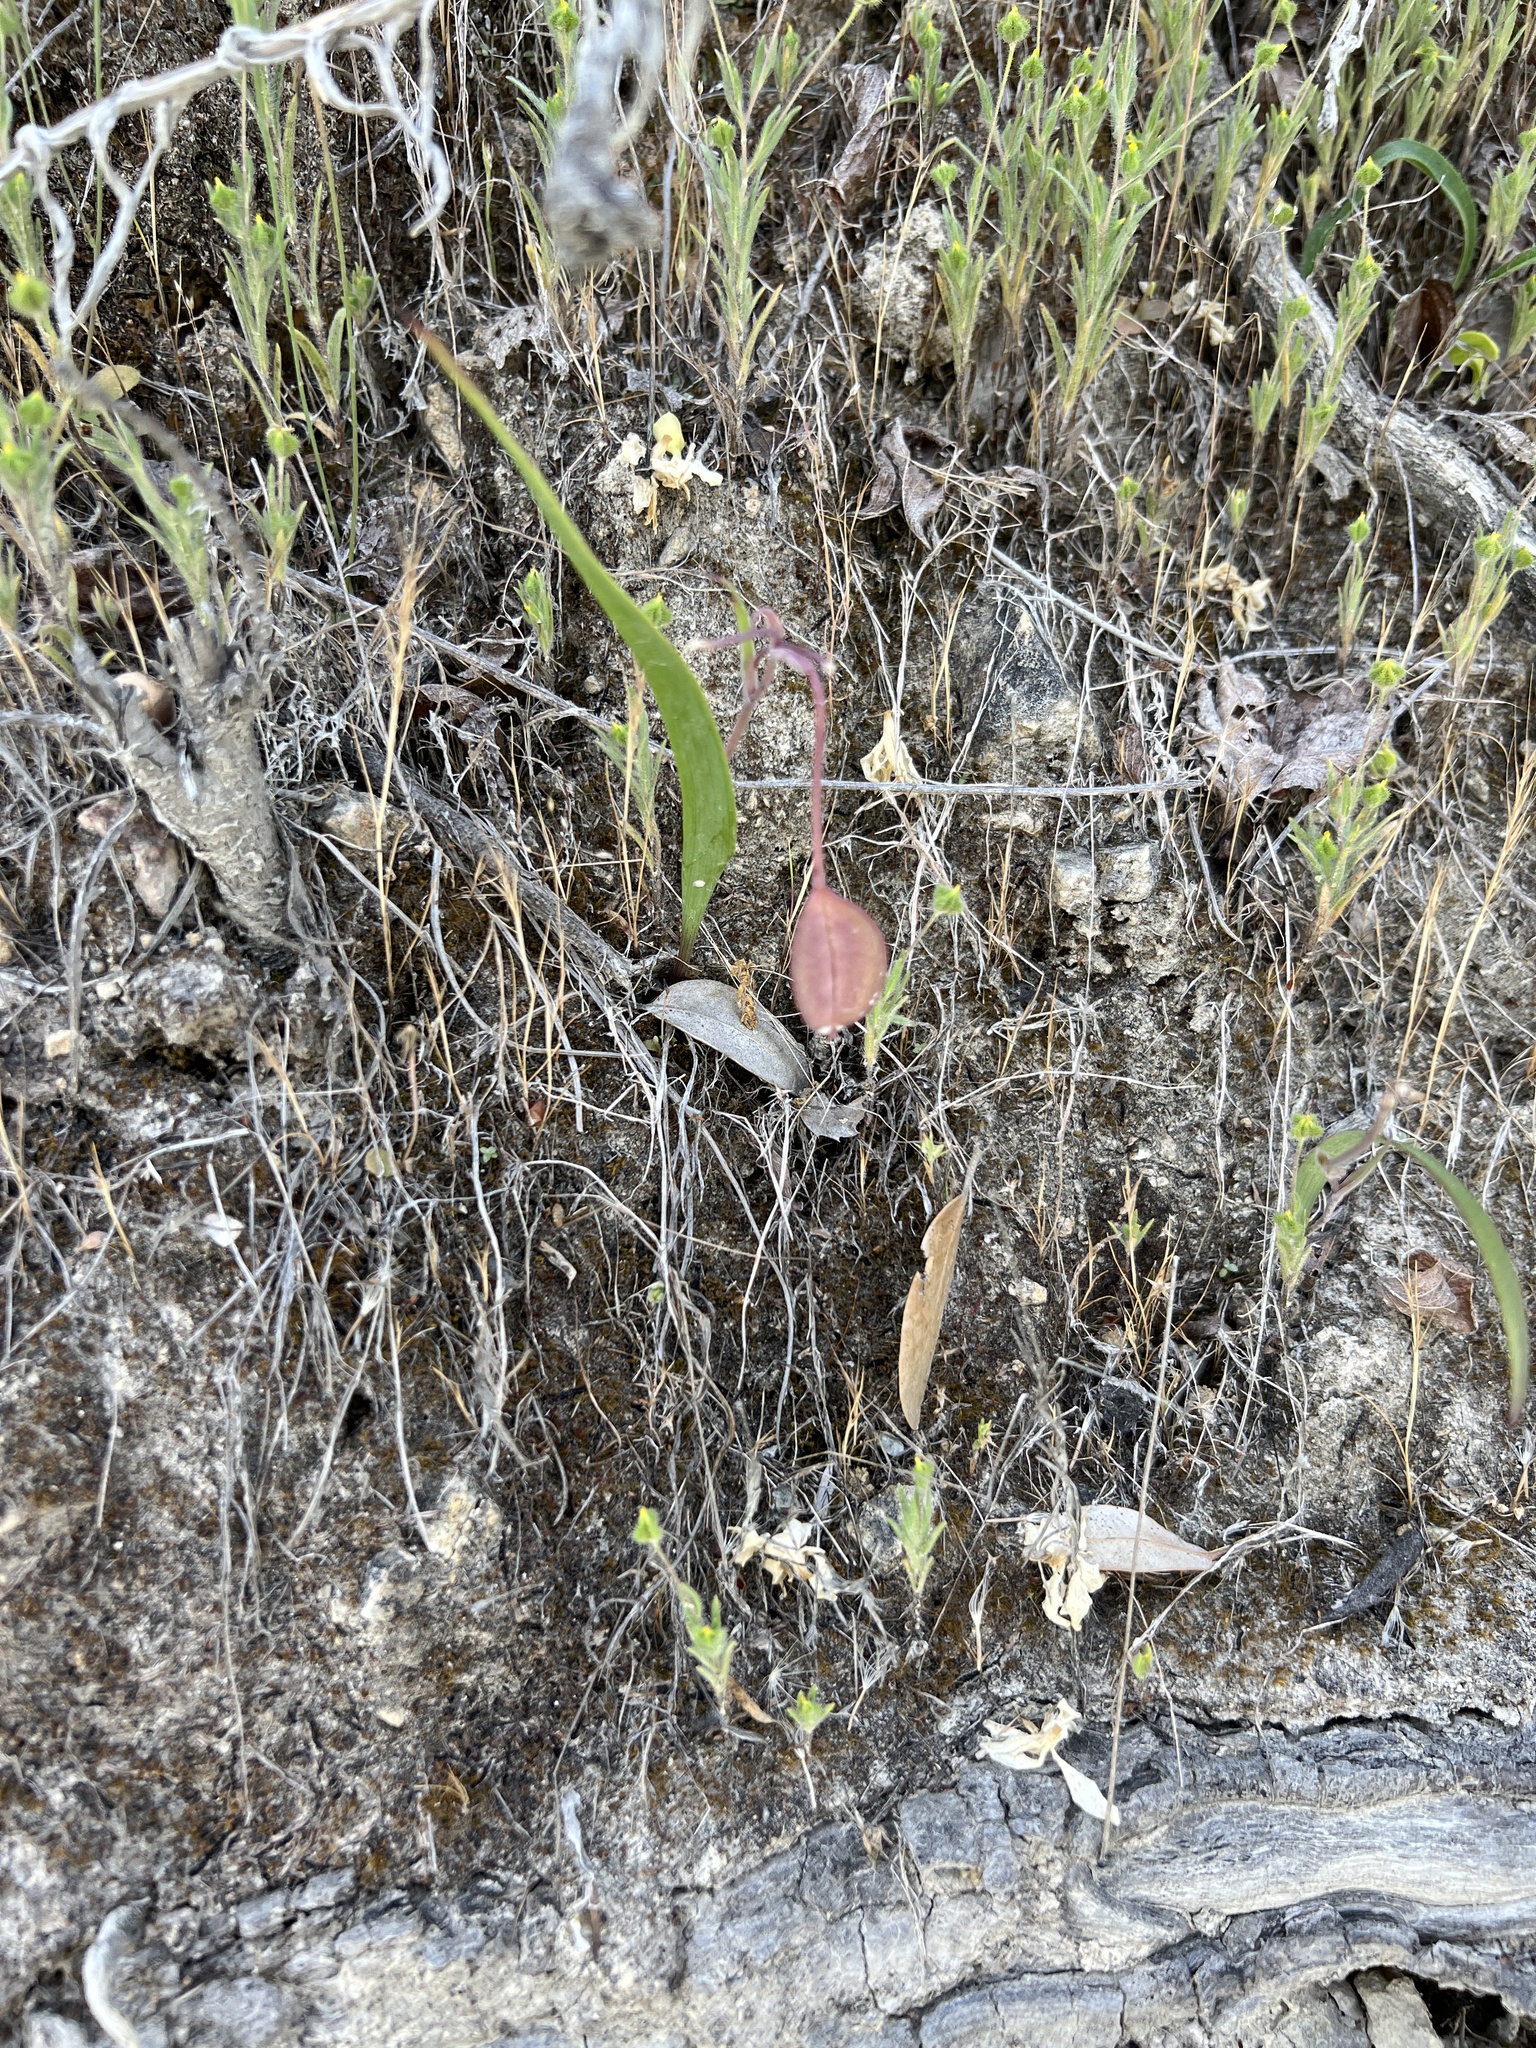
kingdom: Plantae
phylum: Tracheophyta
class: Liliopsida
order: Liliales
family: Liliaceae
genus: Calochortus
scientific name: Calochortus tolmiei
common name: Pussy-ears
